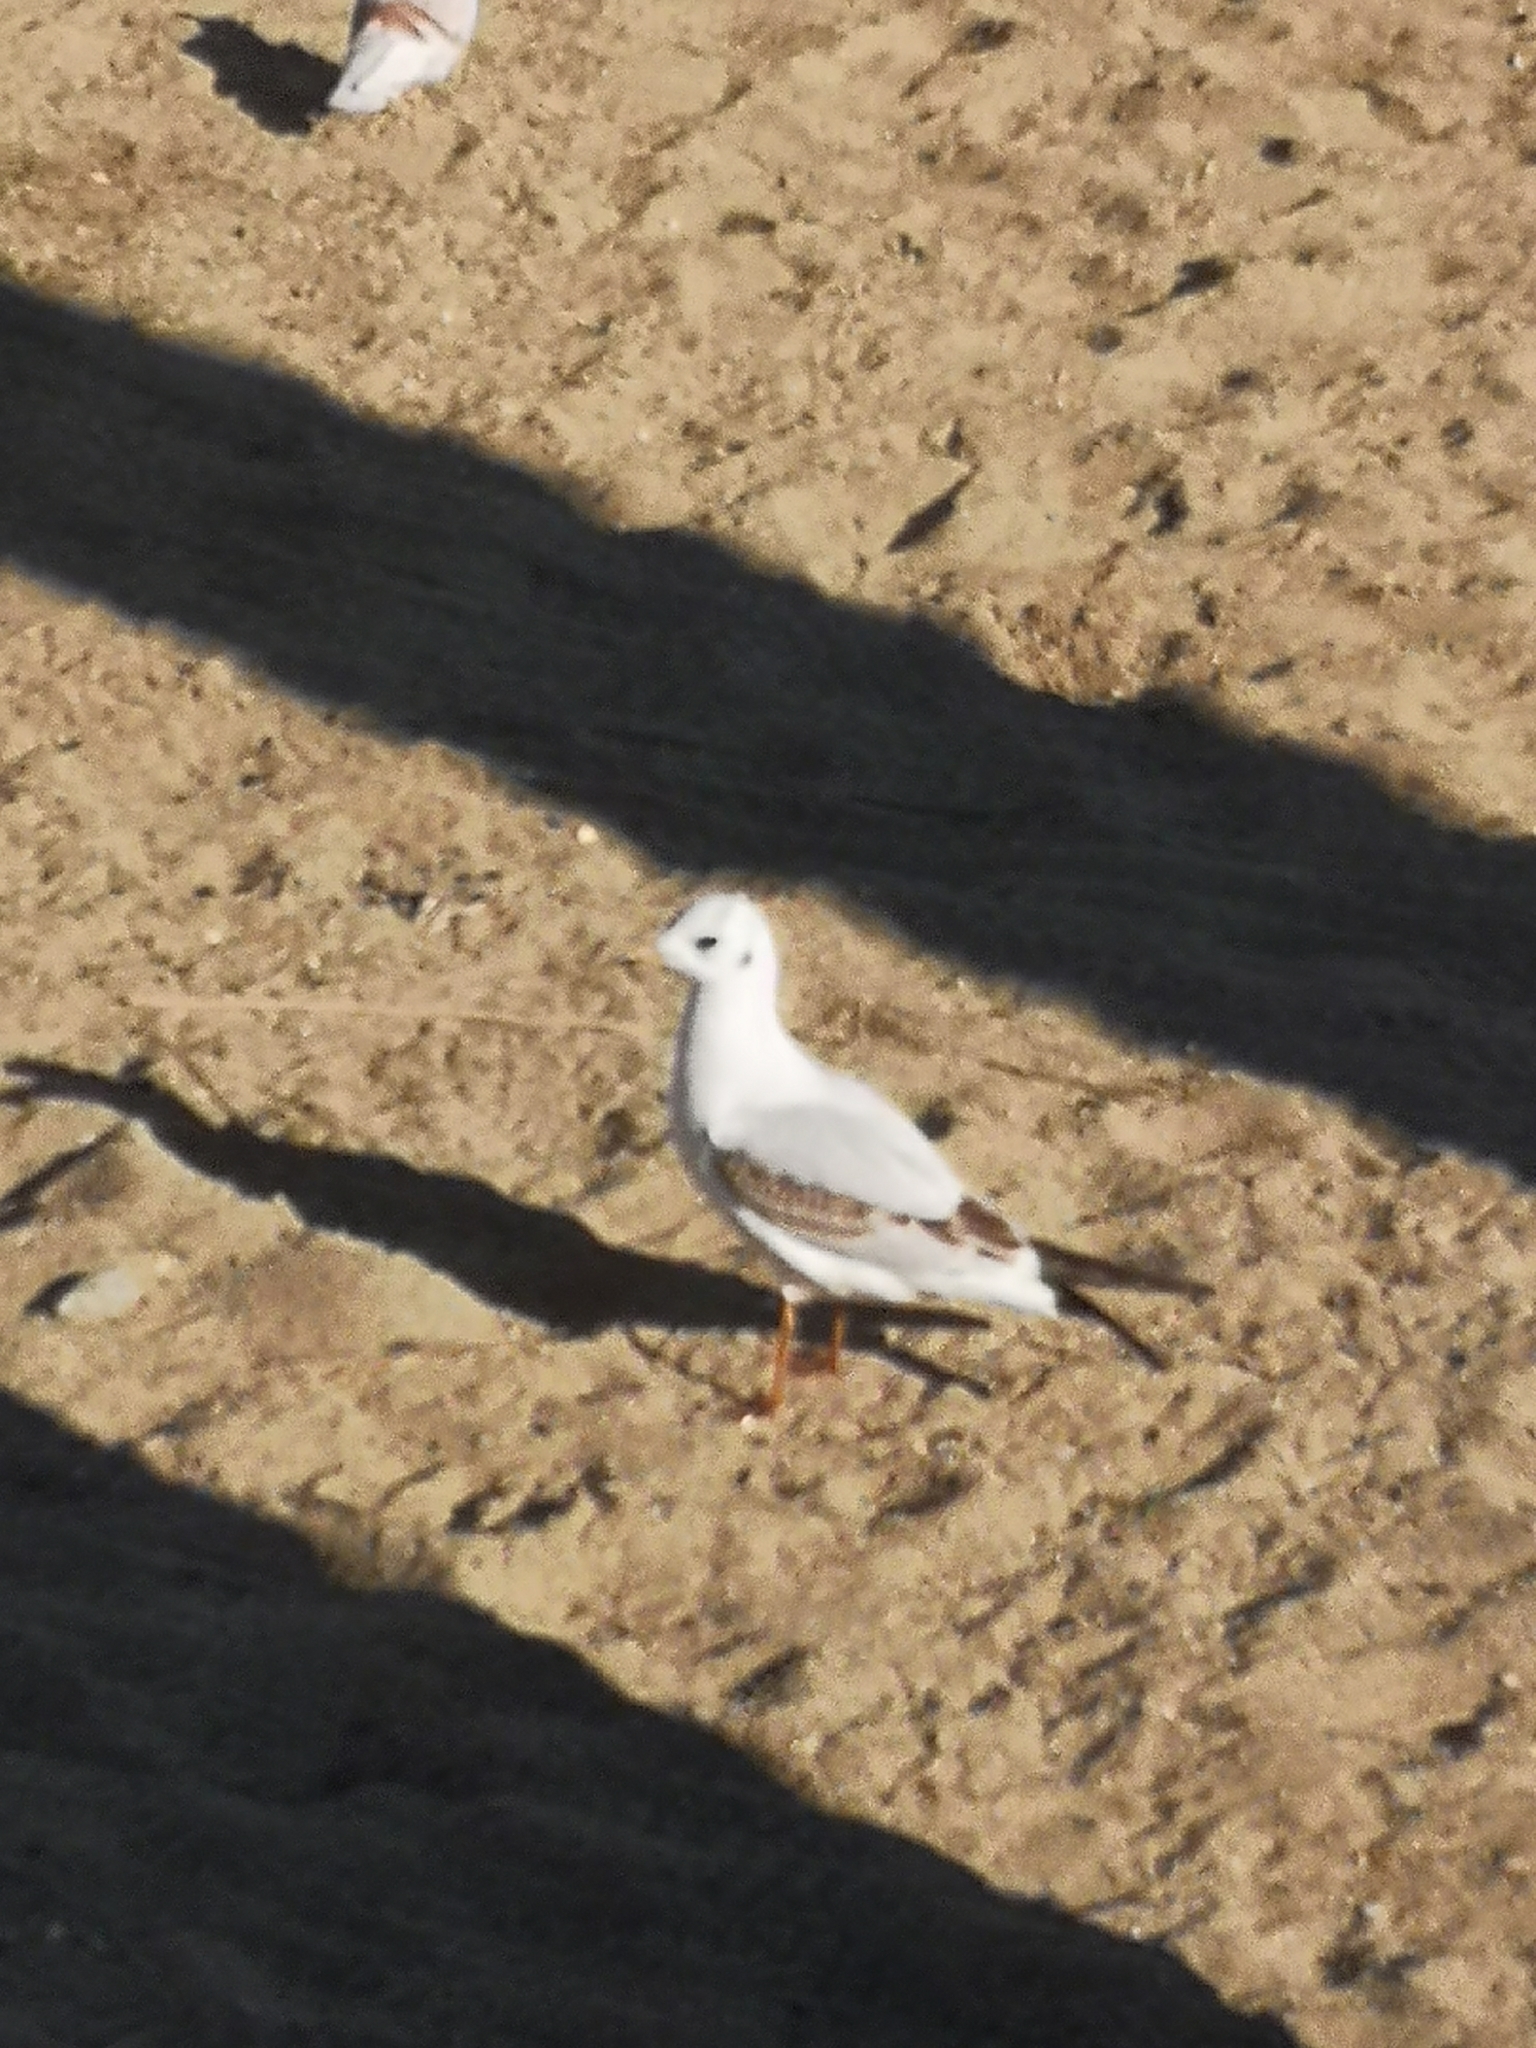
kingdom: Animalia
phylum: Chordata
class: Aves
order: Charadriiformes
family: Laridae
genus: Chroicocephalus
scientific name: Chroicocephalus ridibundus
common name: Black-headed gull
